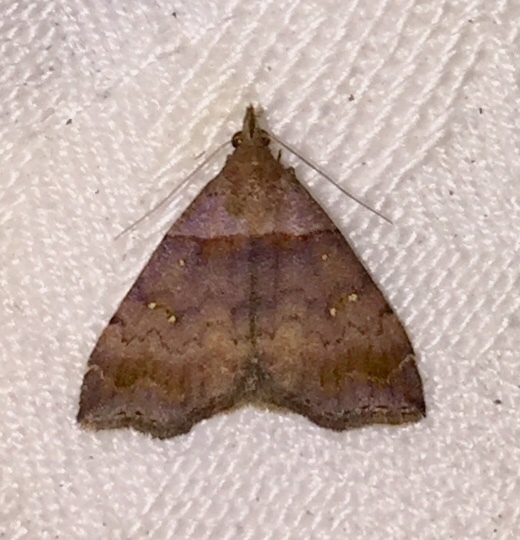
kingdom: Animalia
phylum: Arthropoda
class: Insecta
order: Lepidoptera
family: Erebidae
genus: Lascoria
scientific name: Lascoria ambigualis
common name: Ambiguous moth
